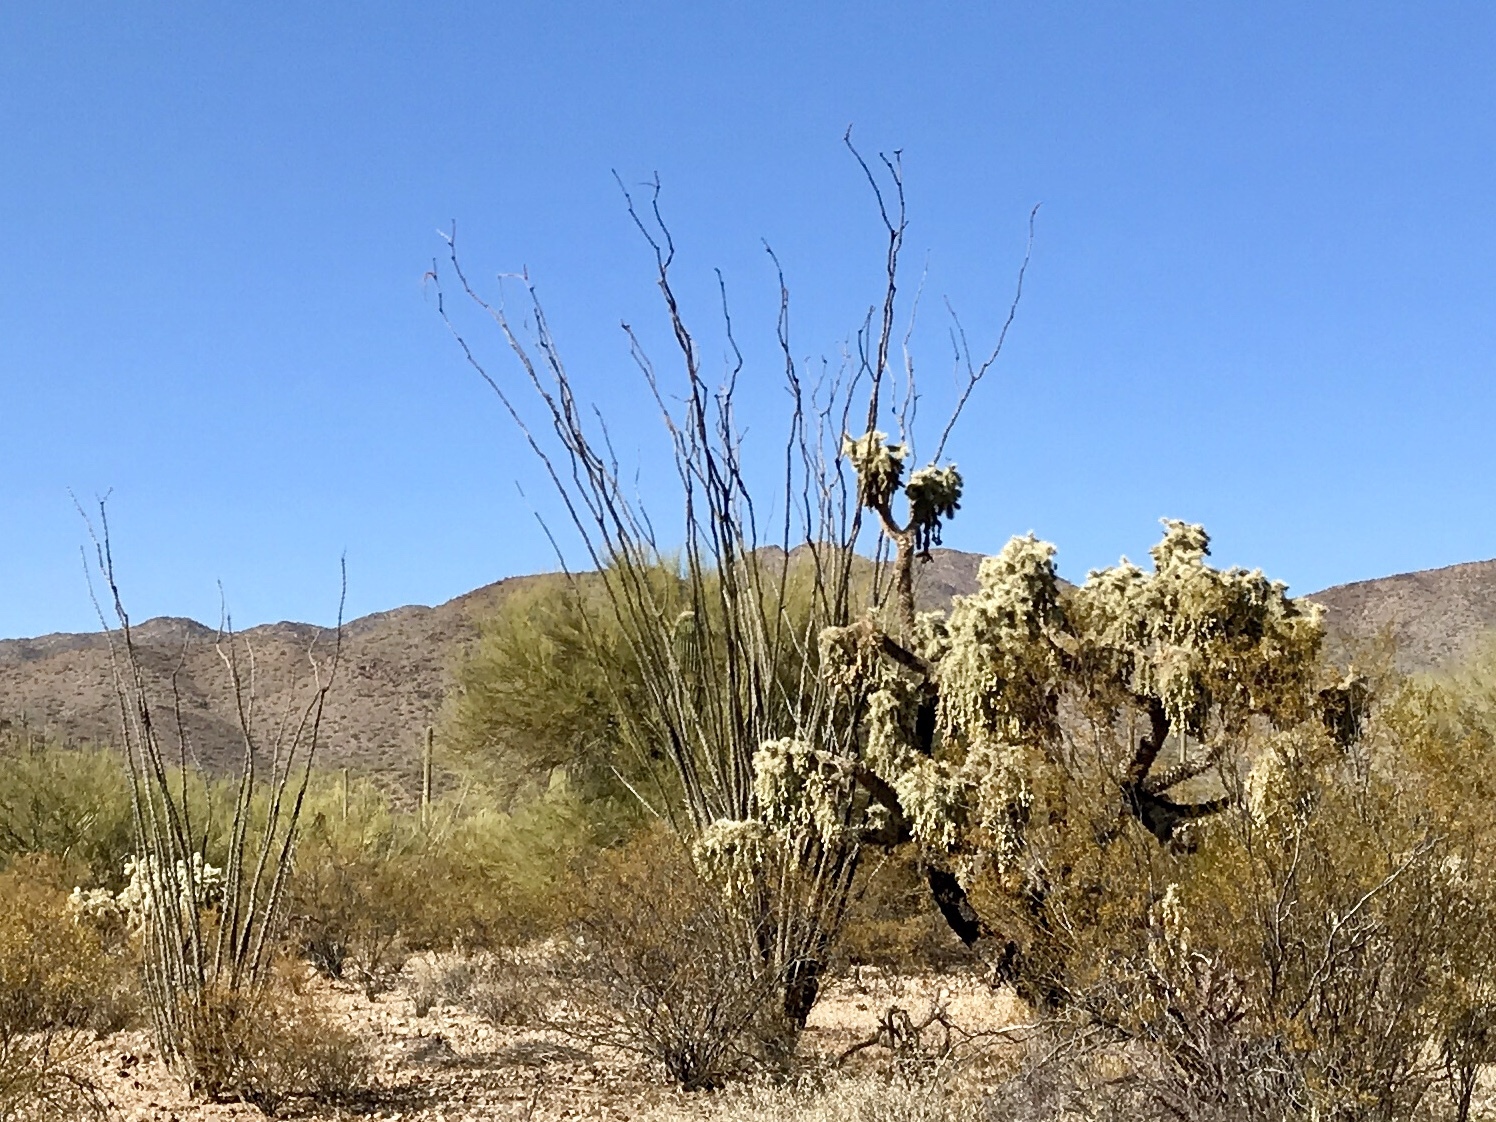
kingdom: Plantae
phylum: Tracheophyta
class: Magnoliopsida
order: Ericales
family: Fouquieriaceae
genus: Fouquieria
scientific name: Fouquieria splendens
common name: Vine-cactus
